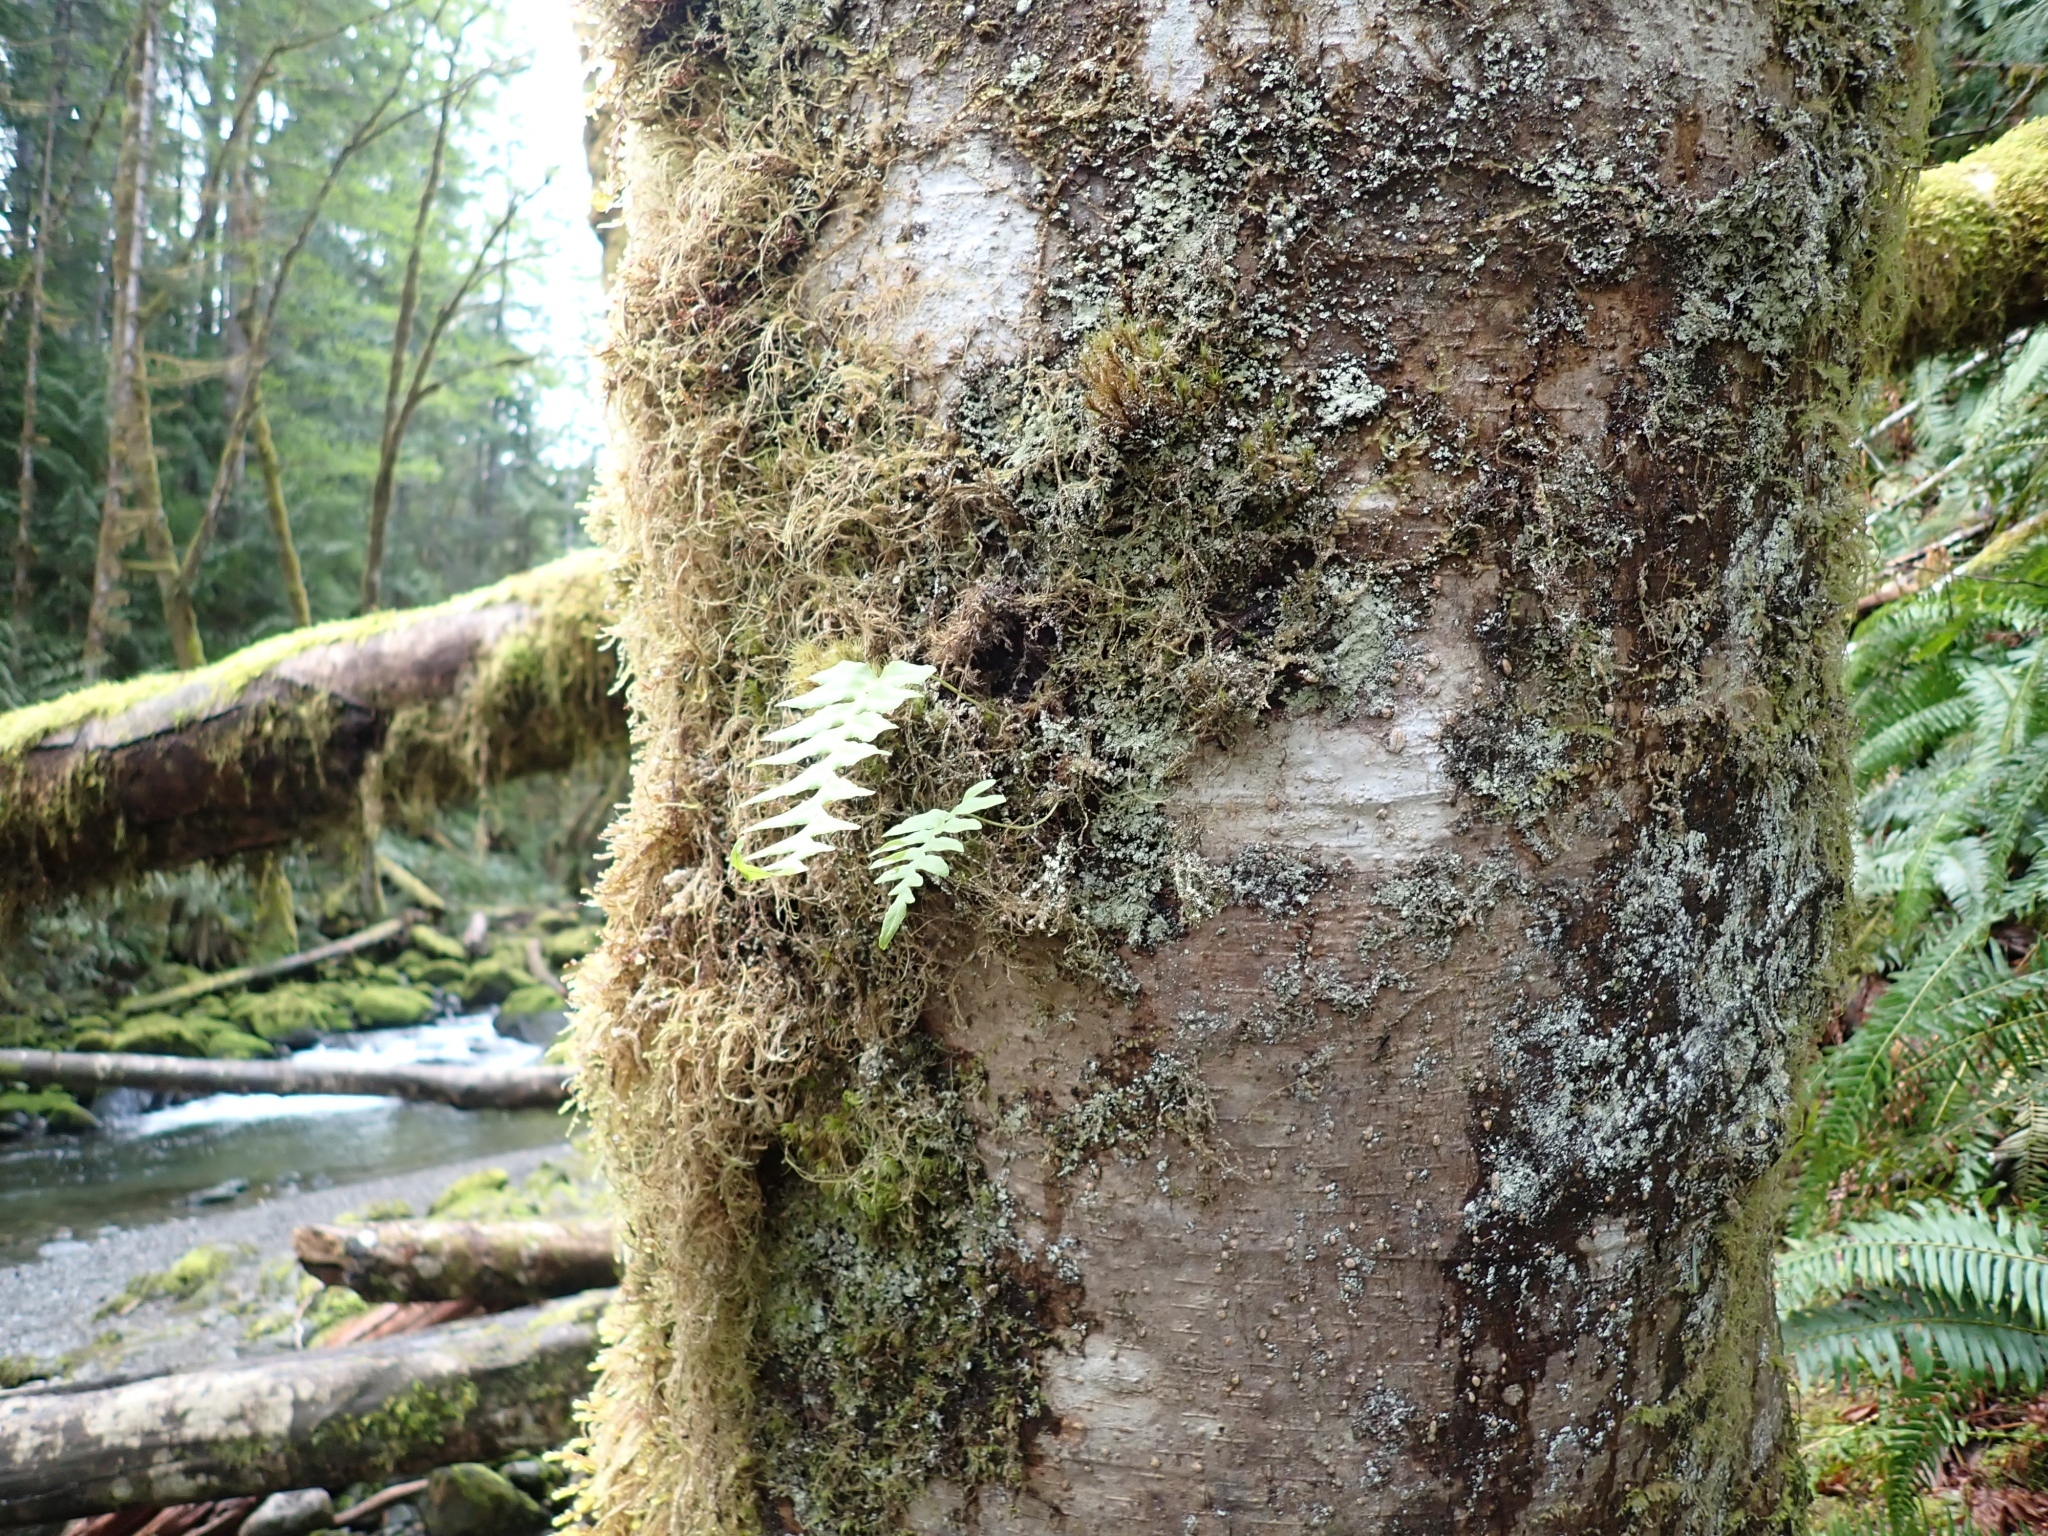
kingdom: Plantae
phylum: Tracheophyta
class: Polypodiopsida
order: Polypodiales
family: Polypodiaceae
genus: Polypodium
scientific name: Polypodium glycyrrhiza
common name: Licorice fern
